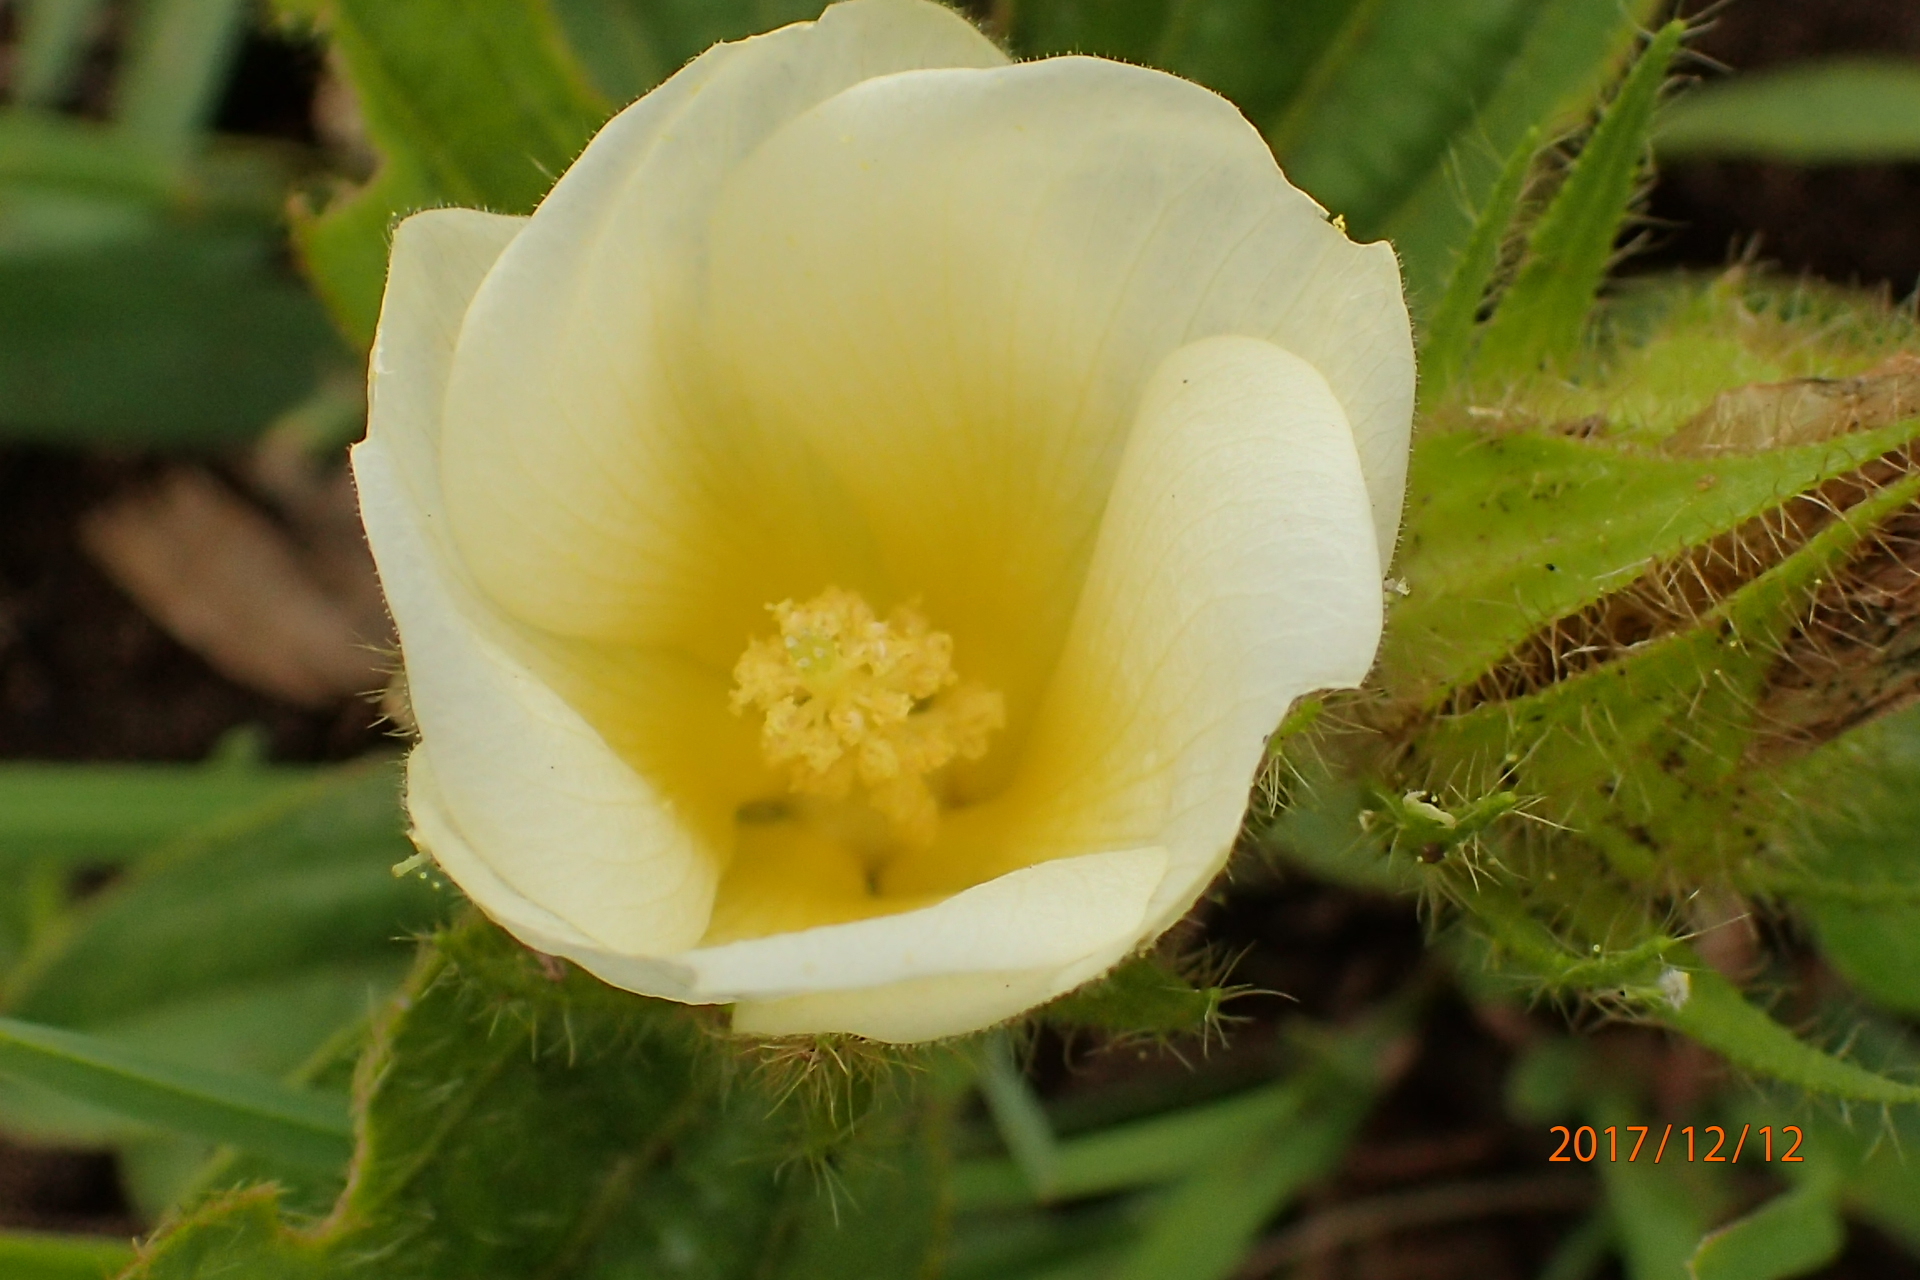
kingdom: Plantae
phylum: Tracheophyta
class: Magnoliopsida
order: Malvales
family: Malvaceae
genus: Hibiscus
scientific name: Hibiscus aethiopicus
